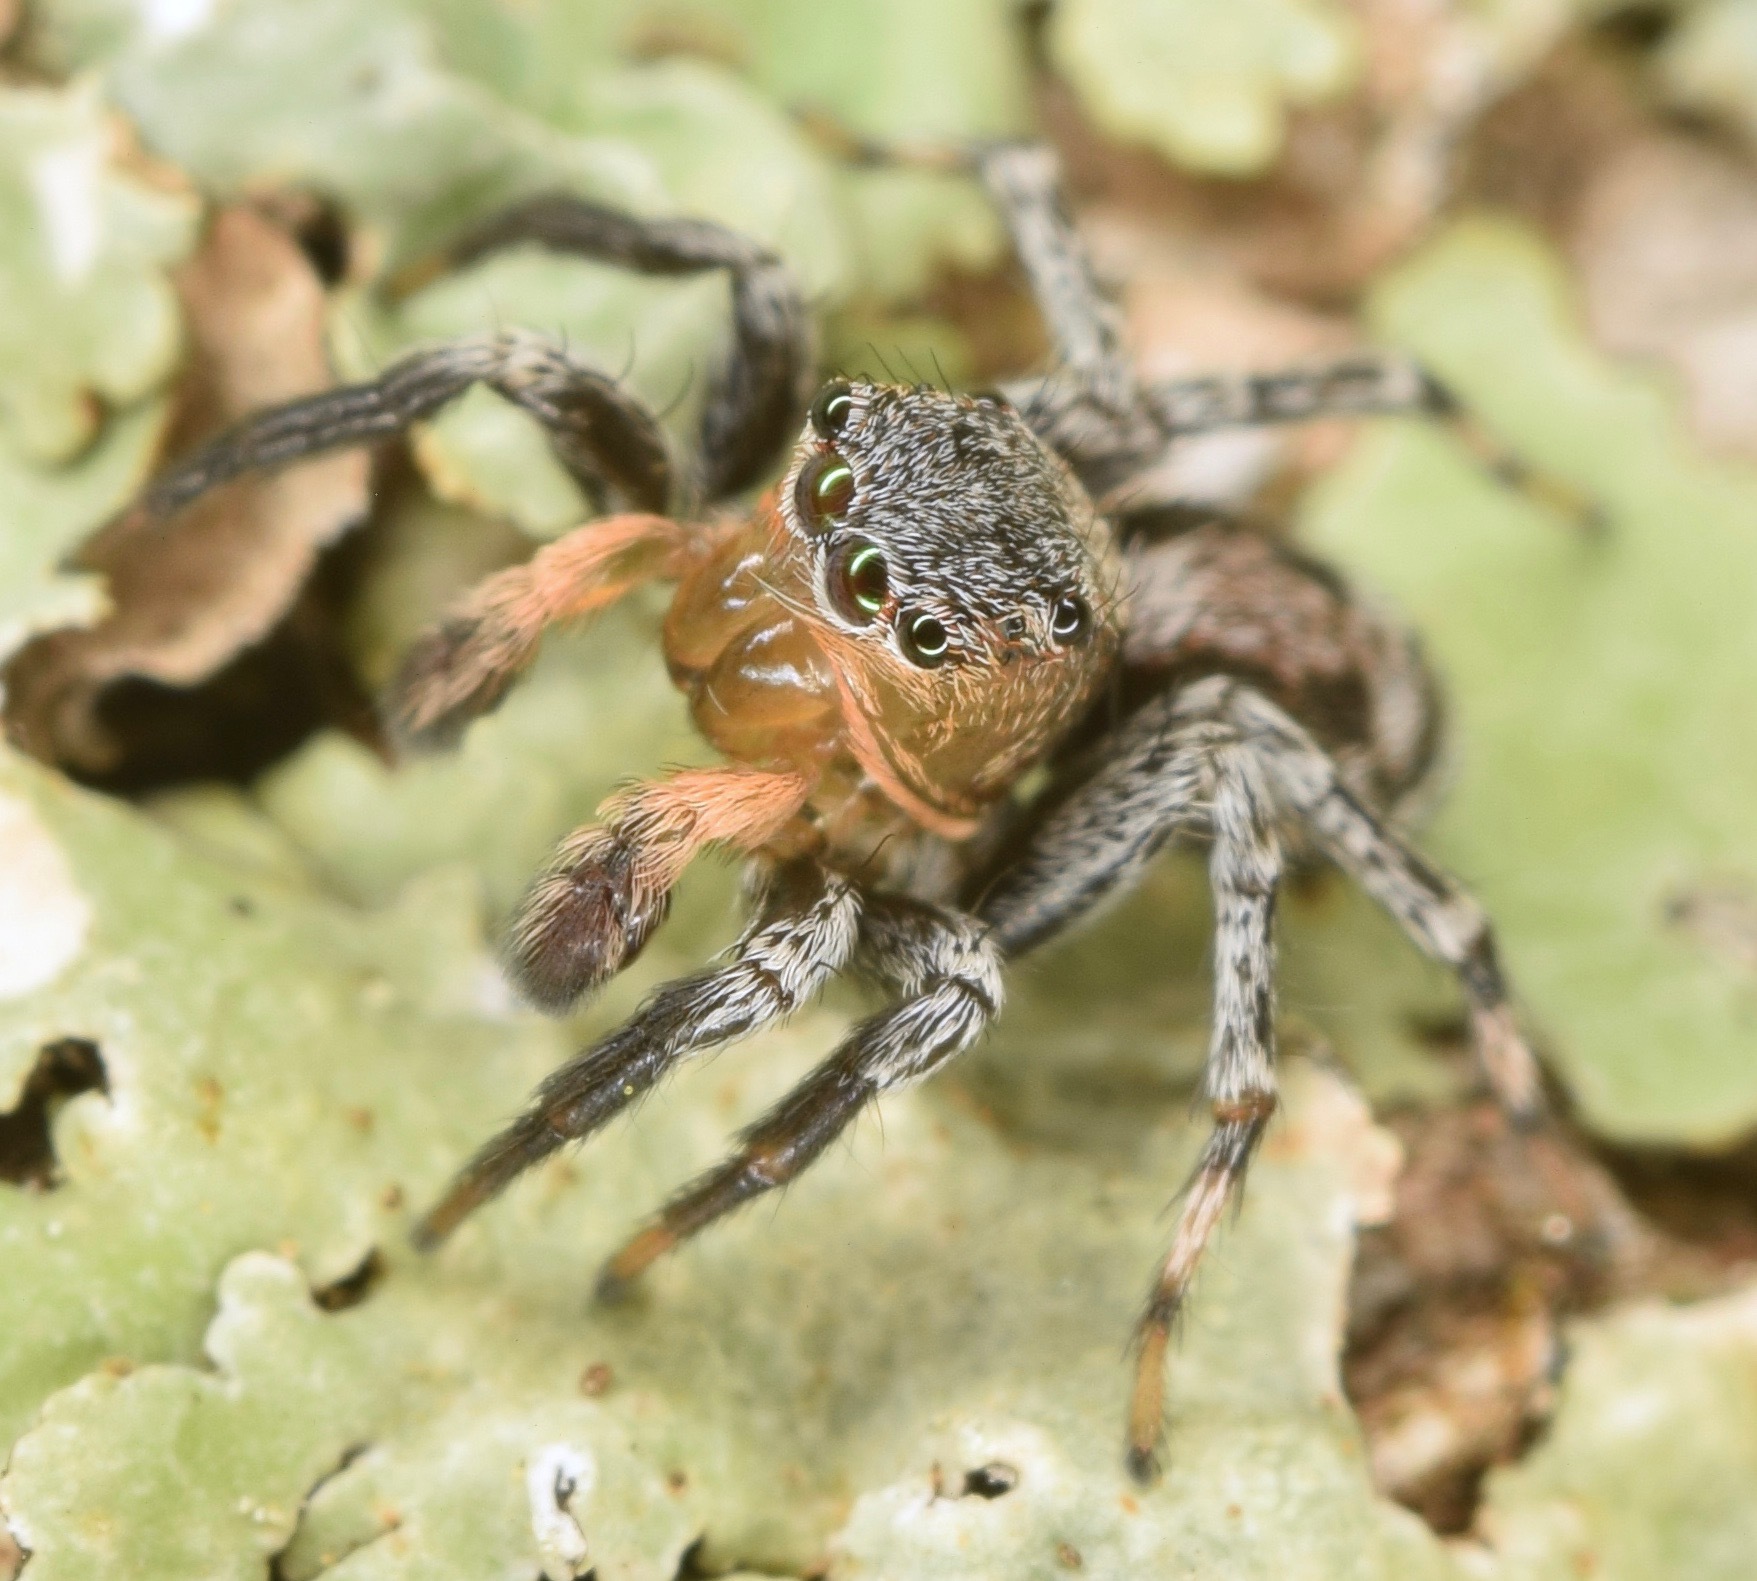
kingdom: Animalia
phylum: Arthropoda
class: Arachnida
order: Araneae
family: Salticidae
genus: Naphrys
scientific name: Naphrys pulex
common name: Flea jumping spider
